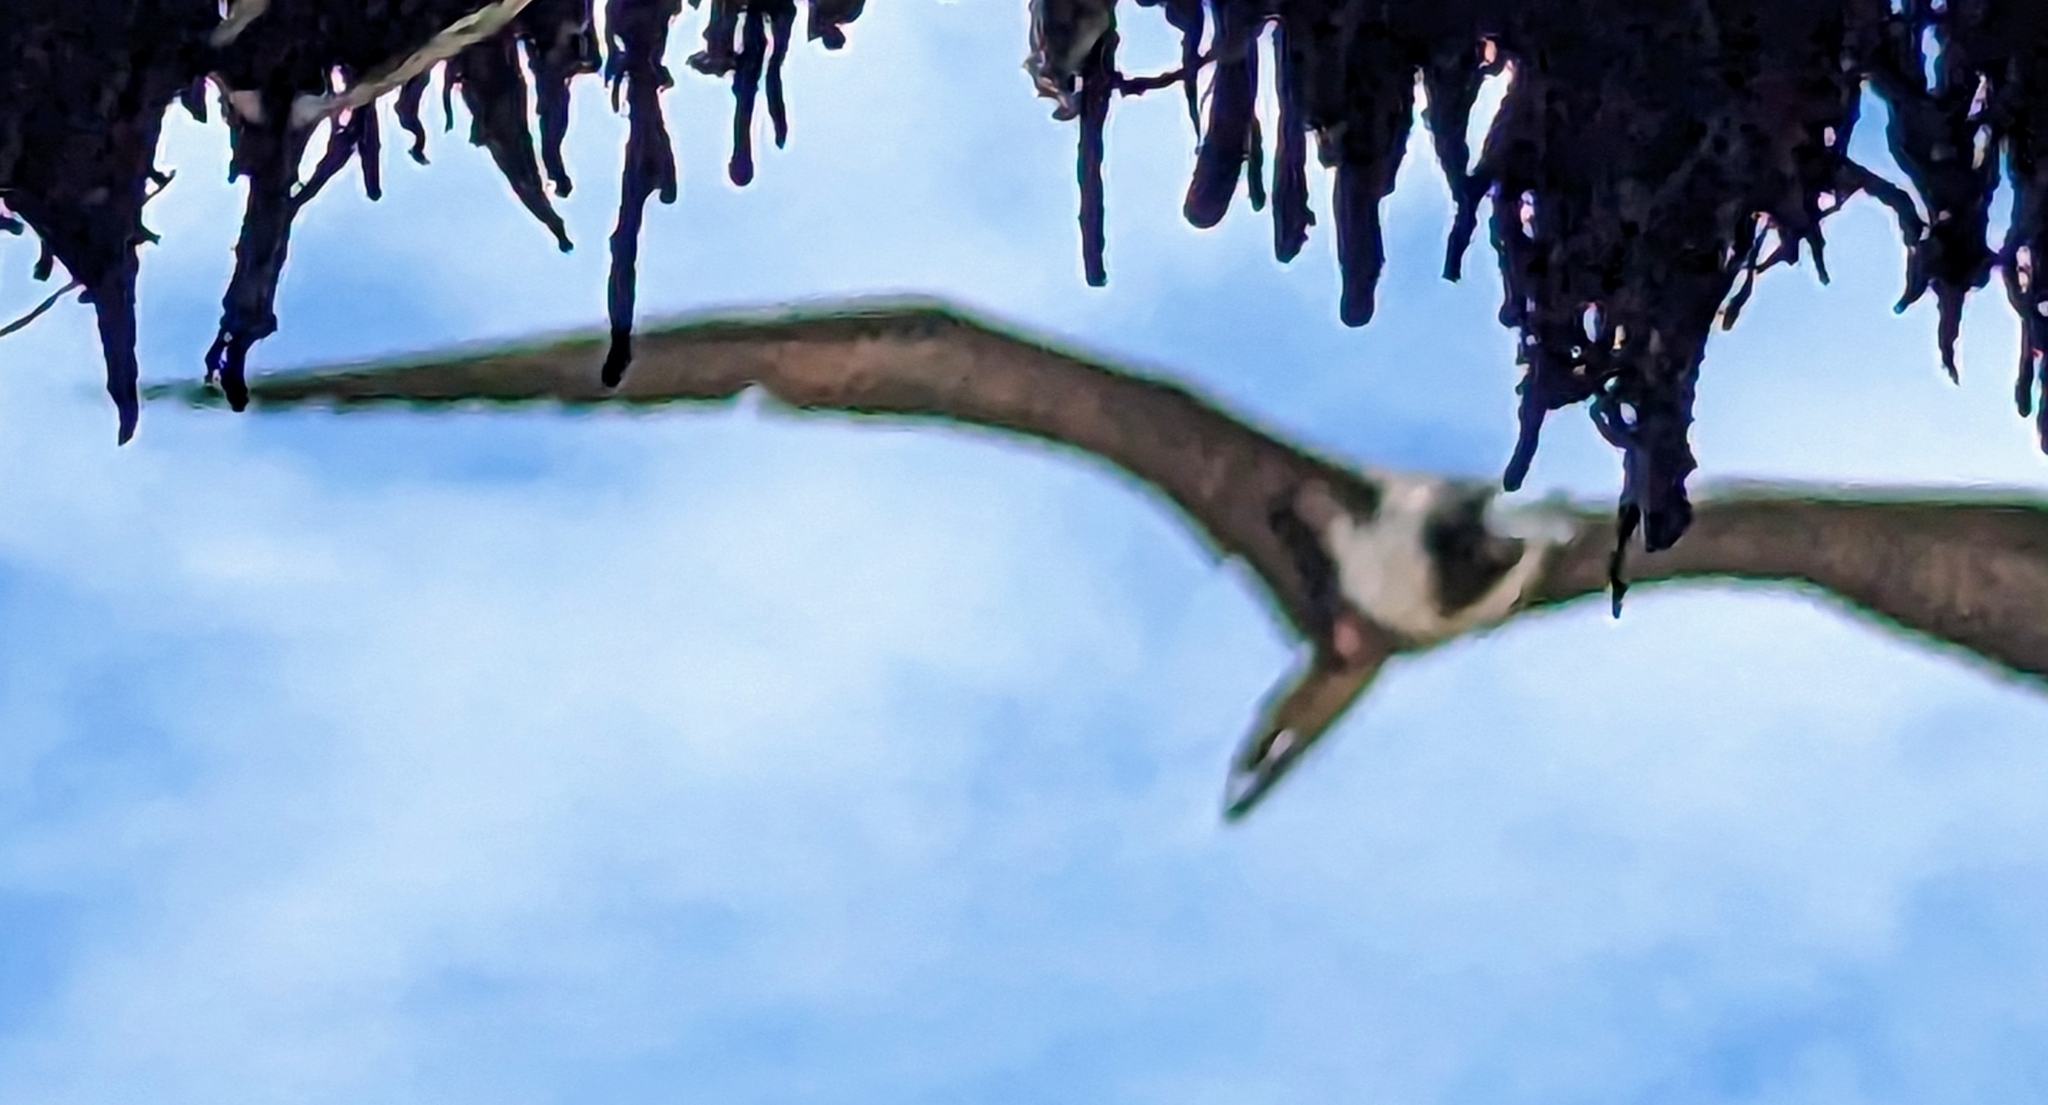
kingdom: Animalia
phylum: Chordata
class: Aves
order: Suliformes
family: Fregatidae
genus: Fregata
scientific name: Fregata magnificens
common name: Magnificent frigatebird
